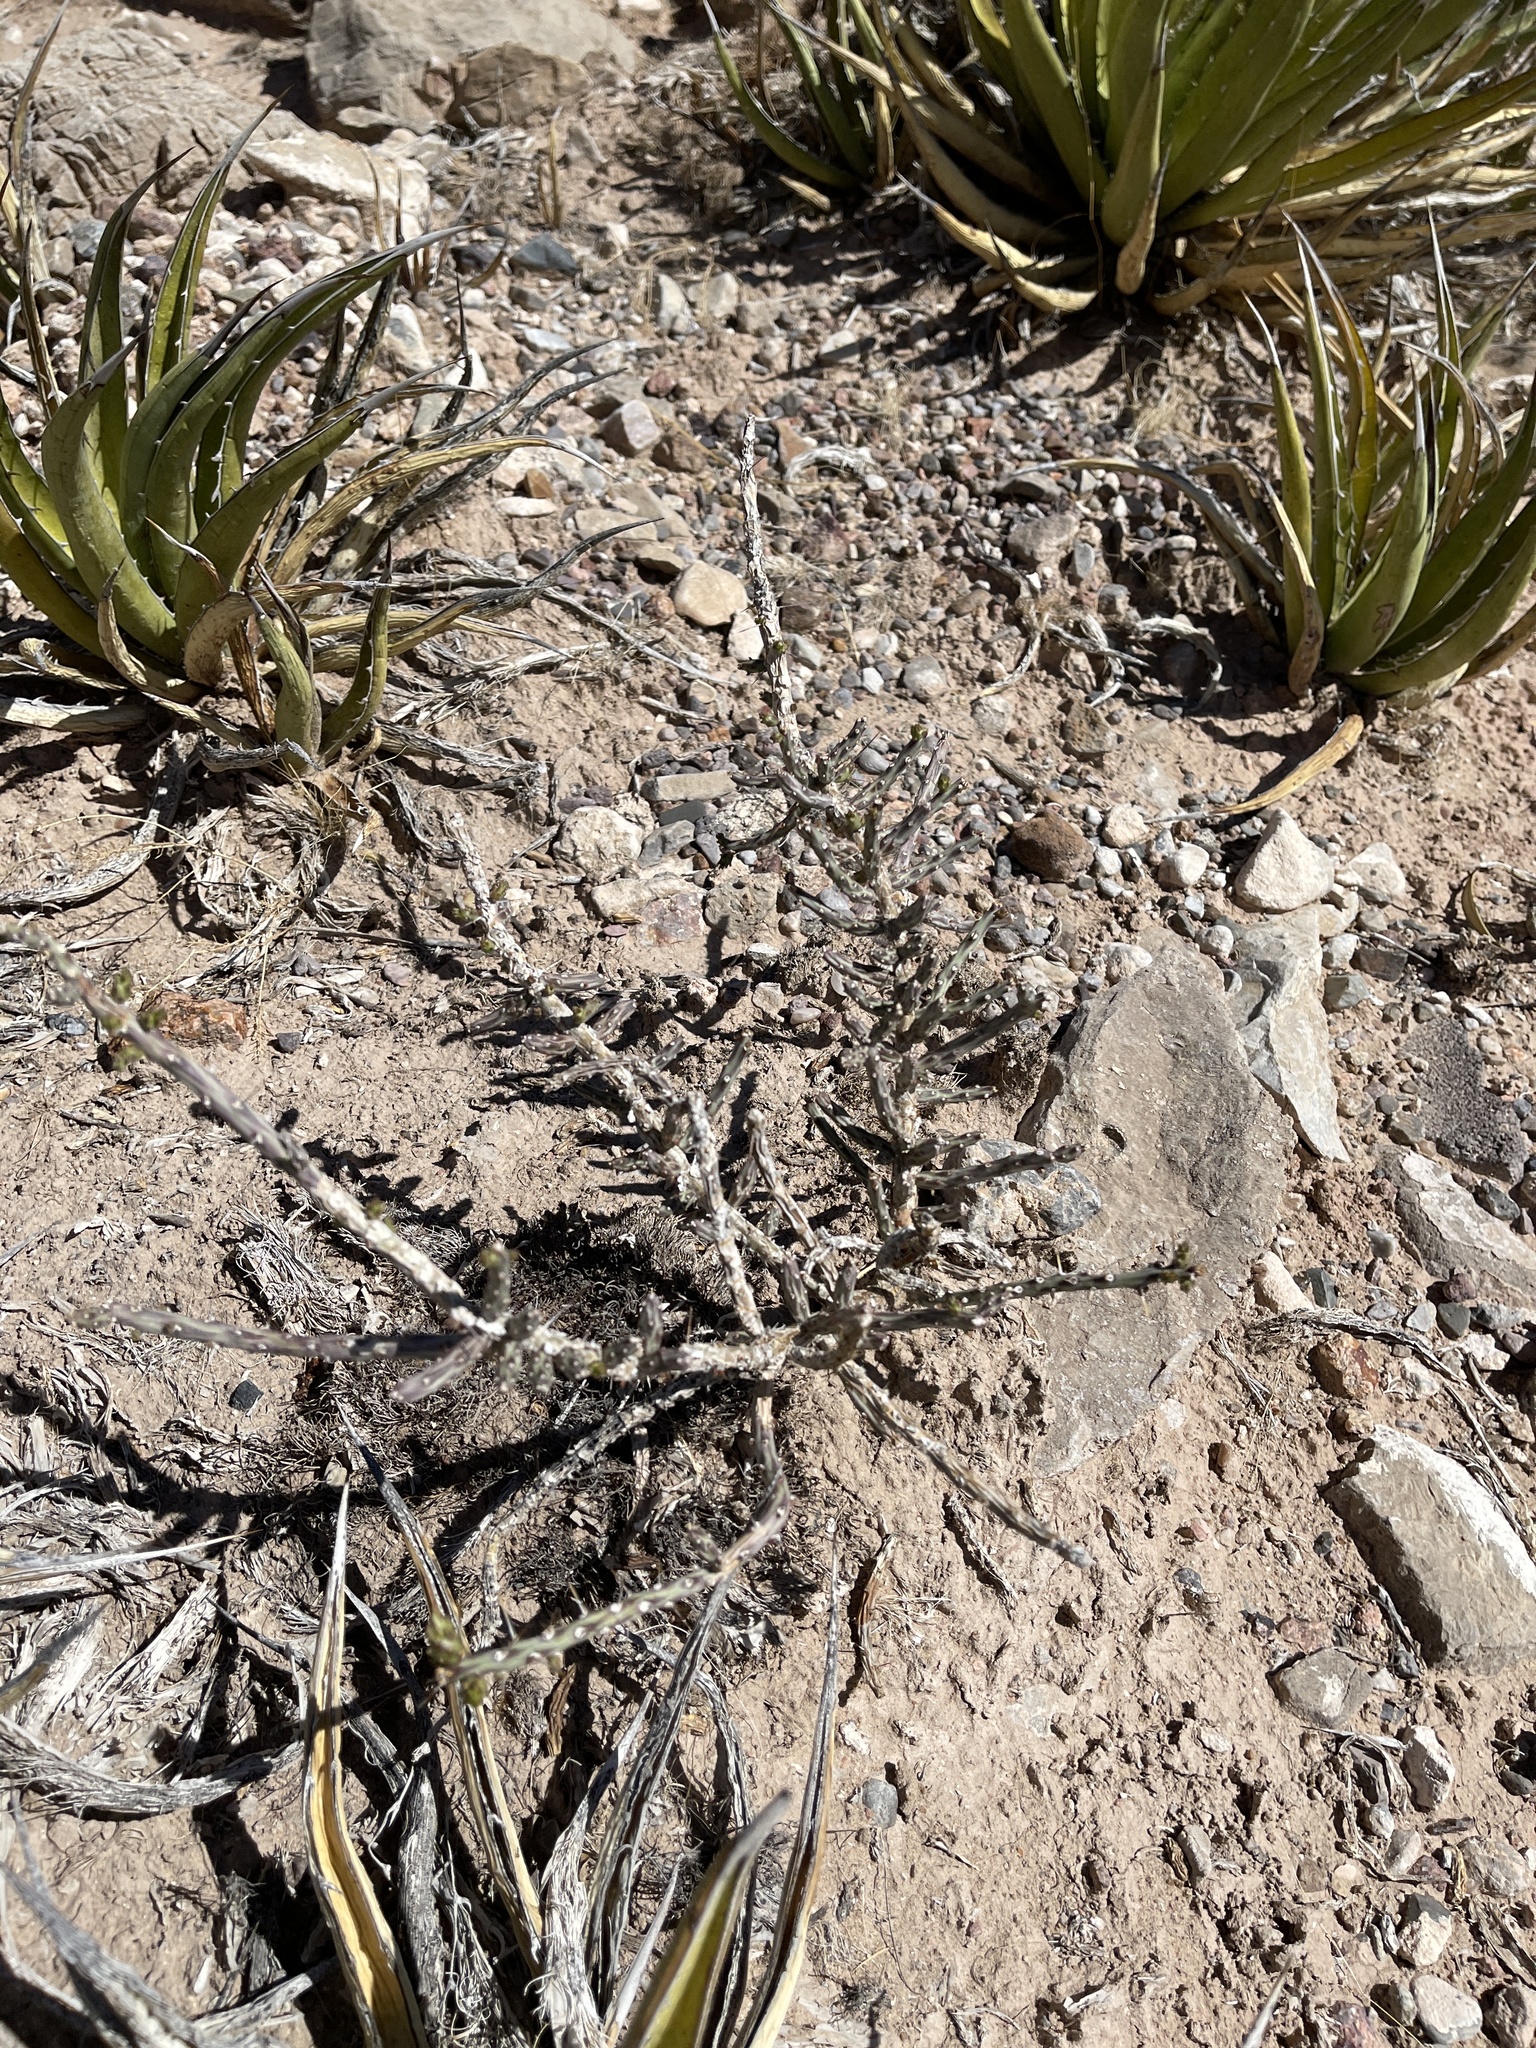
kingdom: Plantae
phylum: Tracheophyta
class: Magnoliopsida
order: Caryophyllales
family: Cactaceae
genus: Cylindropuntia
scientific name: Cylindropuntia leptocaulis
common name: Christmas cactus
